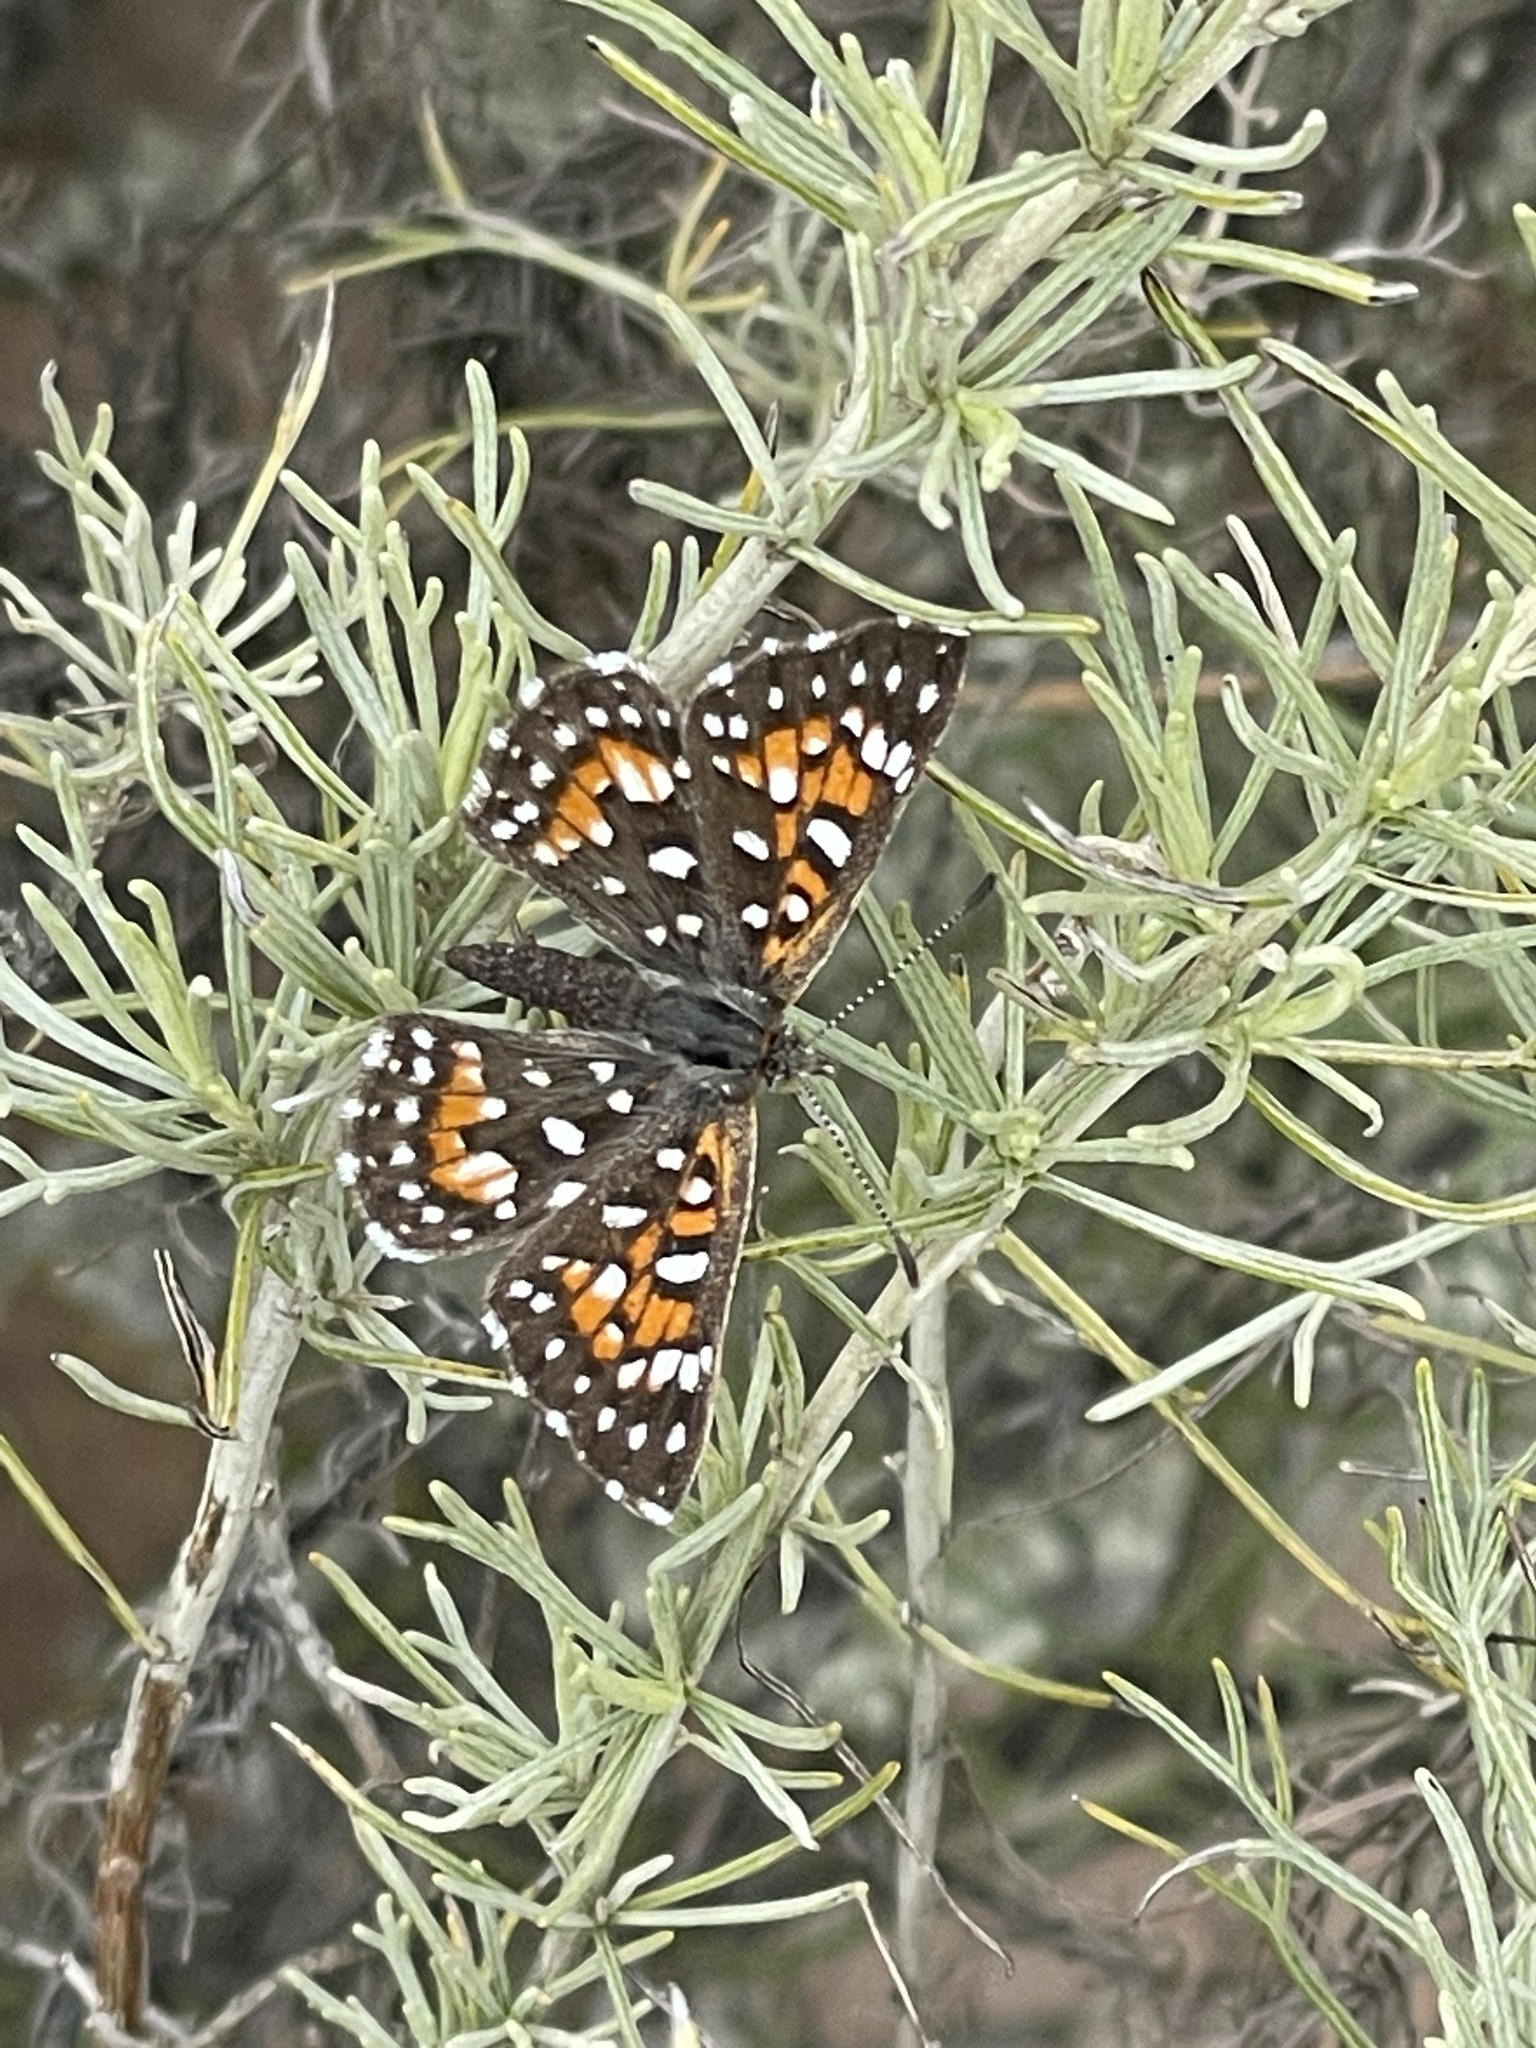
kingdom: Animalia
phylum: Arthropoda
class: Insecta
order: Lepidoptera
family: Riodinidae
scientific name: Riodinidae
